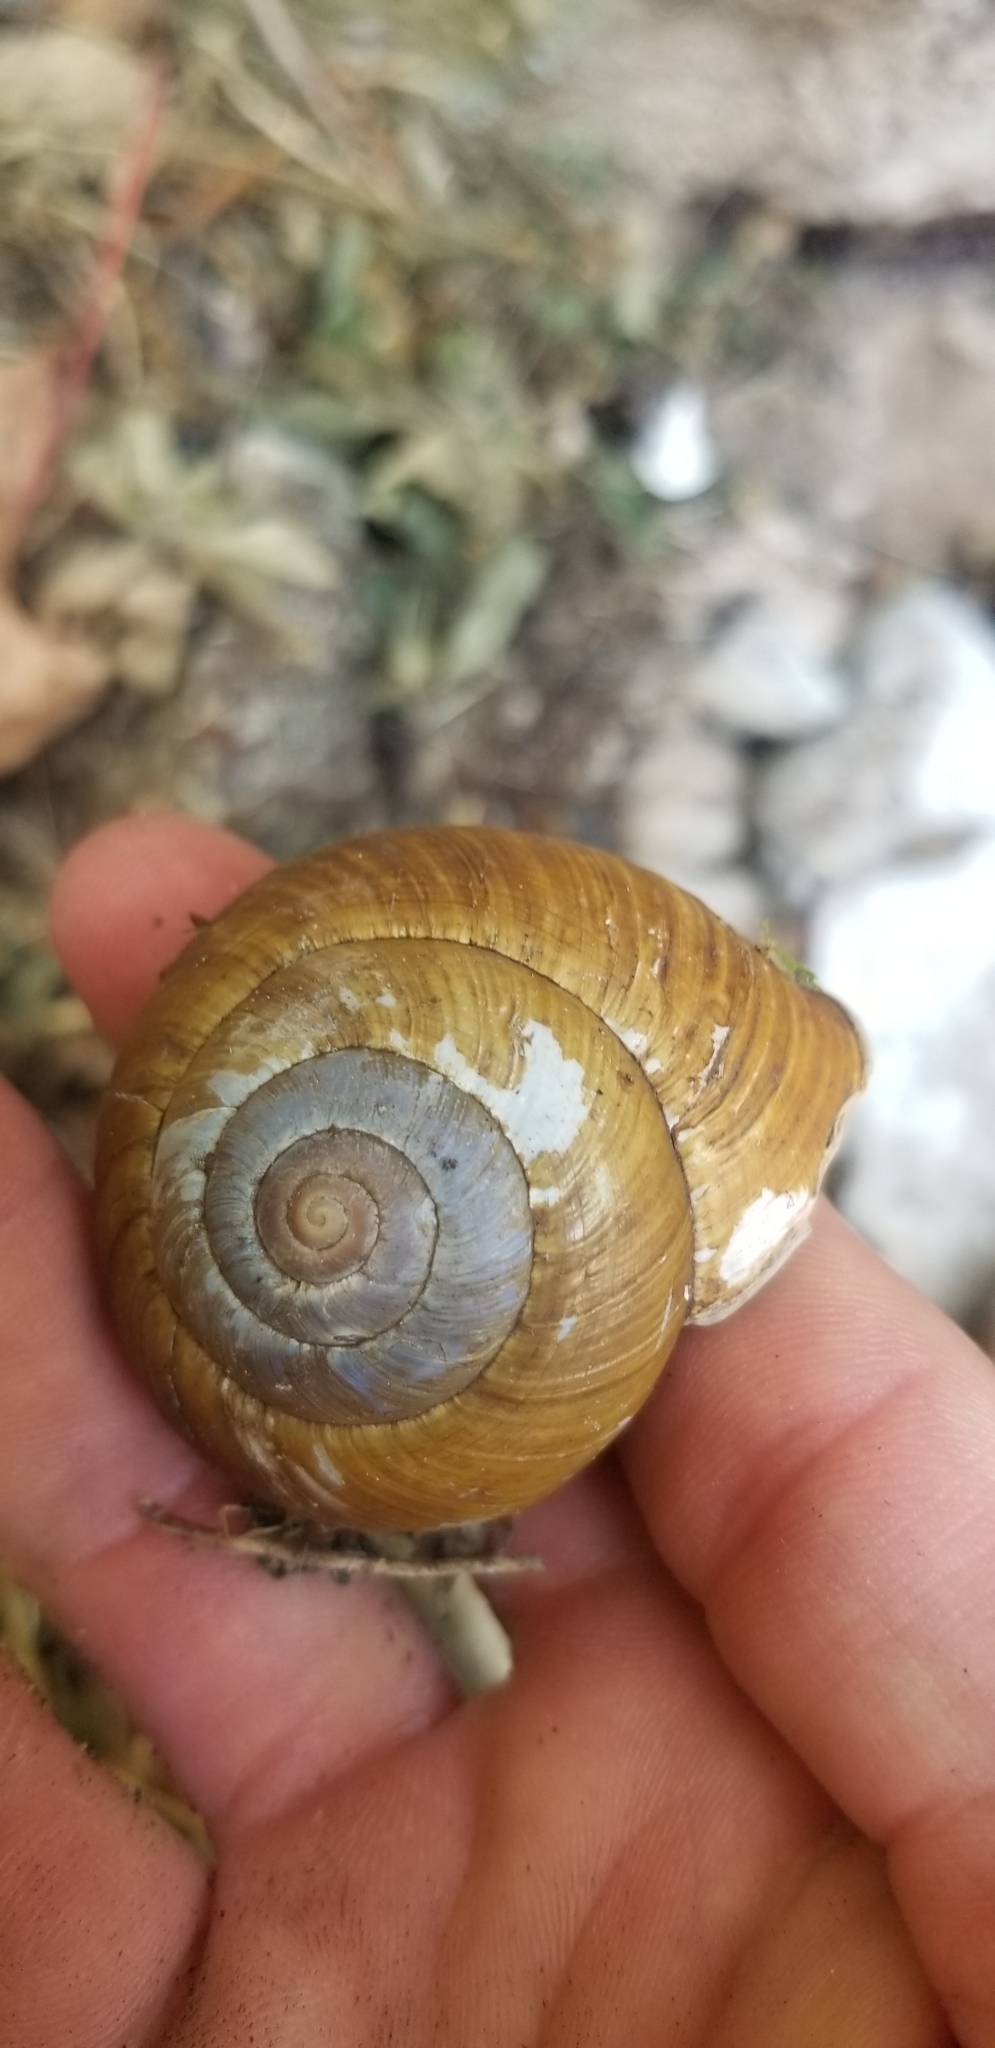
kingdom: Animalia
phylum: Mollusca
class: Gastropoda
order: Stylommatophora
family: Helicidae
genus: Dinarica
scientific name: Dinarica pouzolzii
